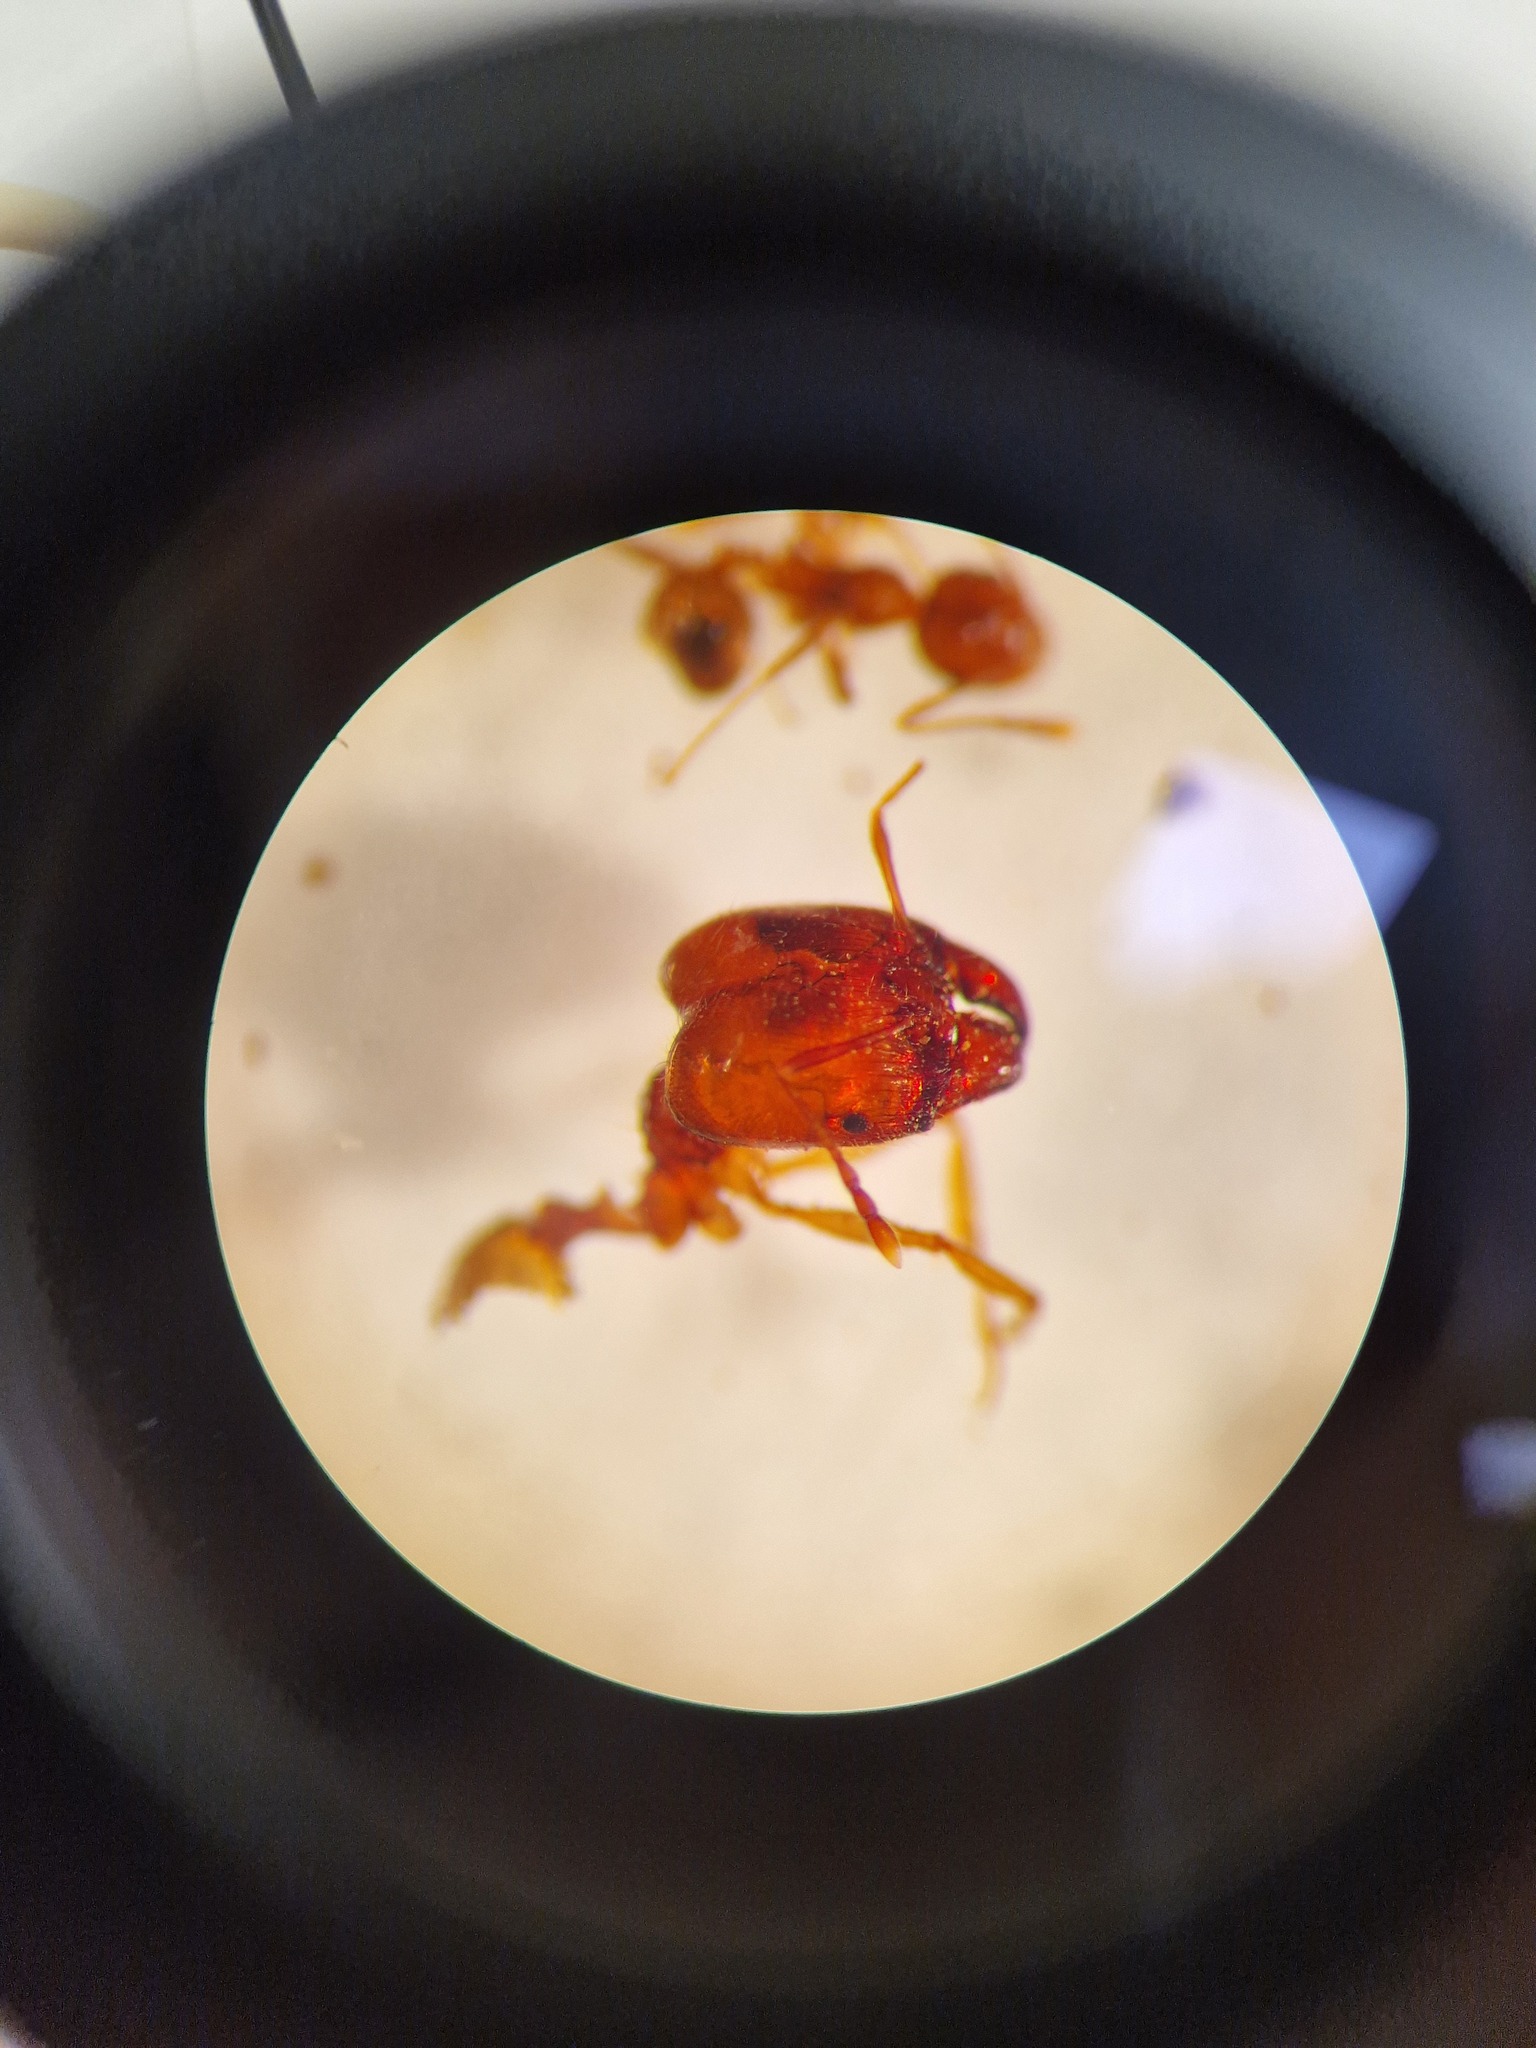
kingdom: Animalia
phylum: Arthropoda
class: Insecta
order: Hymenoptera
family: Formicidae
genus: Pheidole
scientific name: Pheidole pallidula
